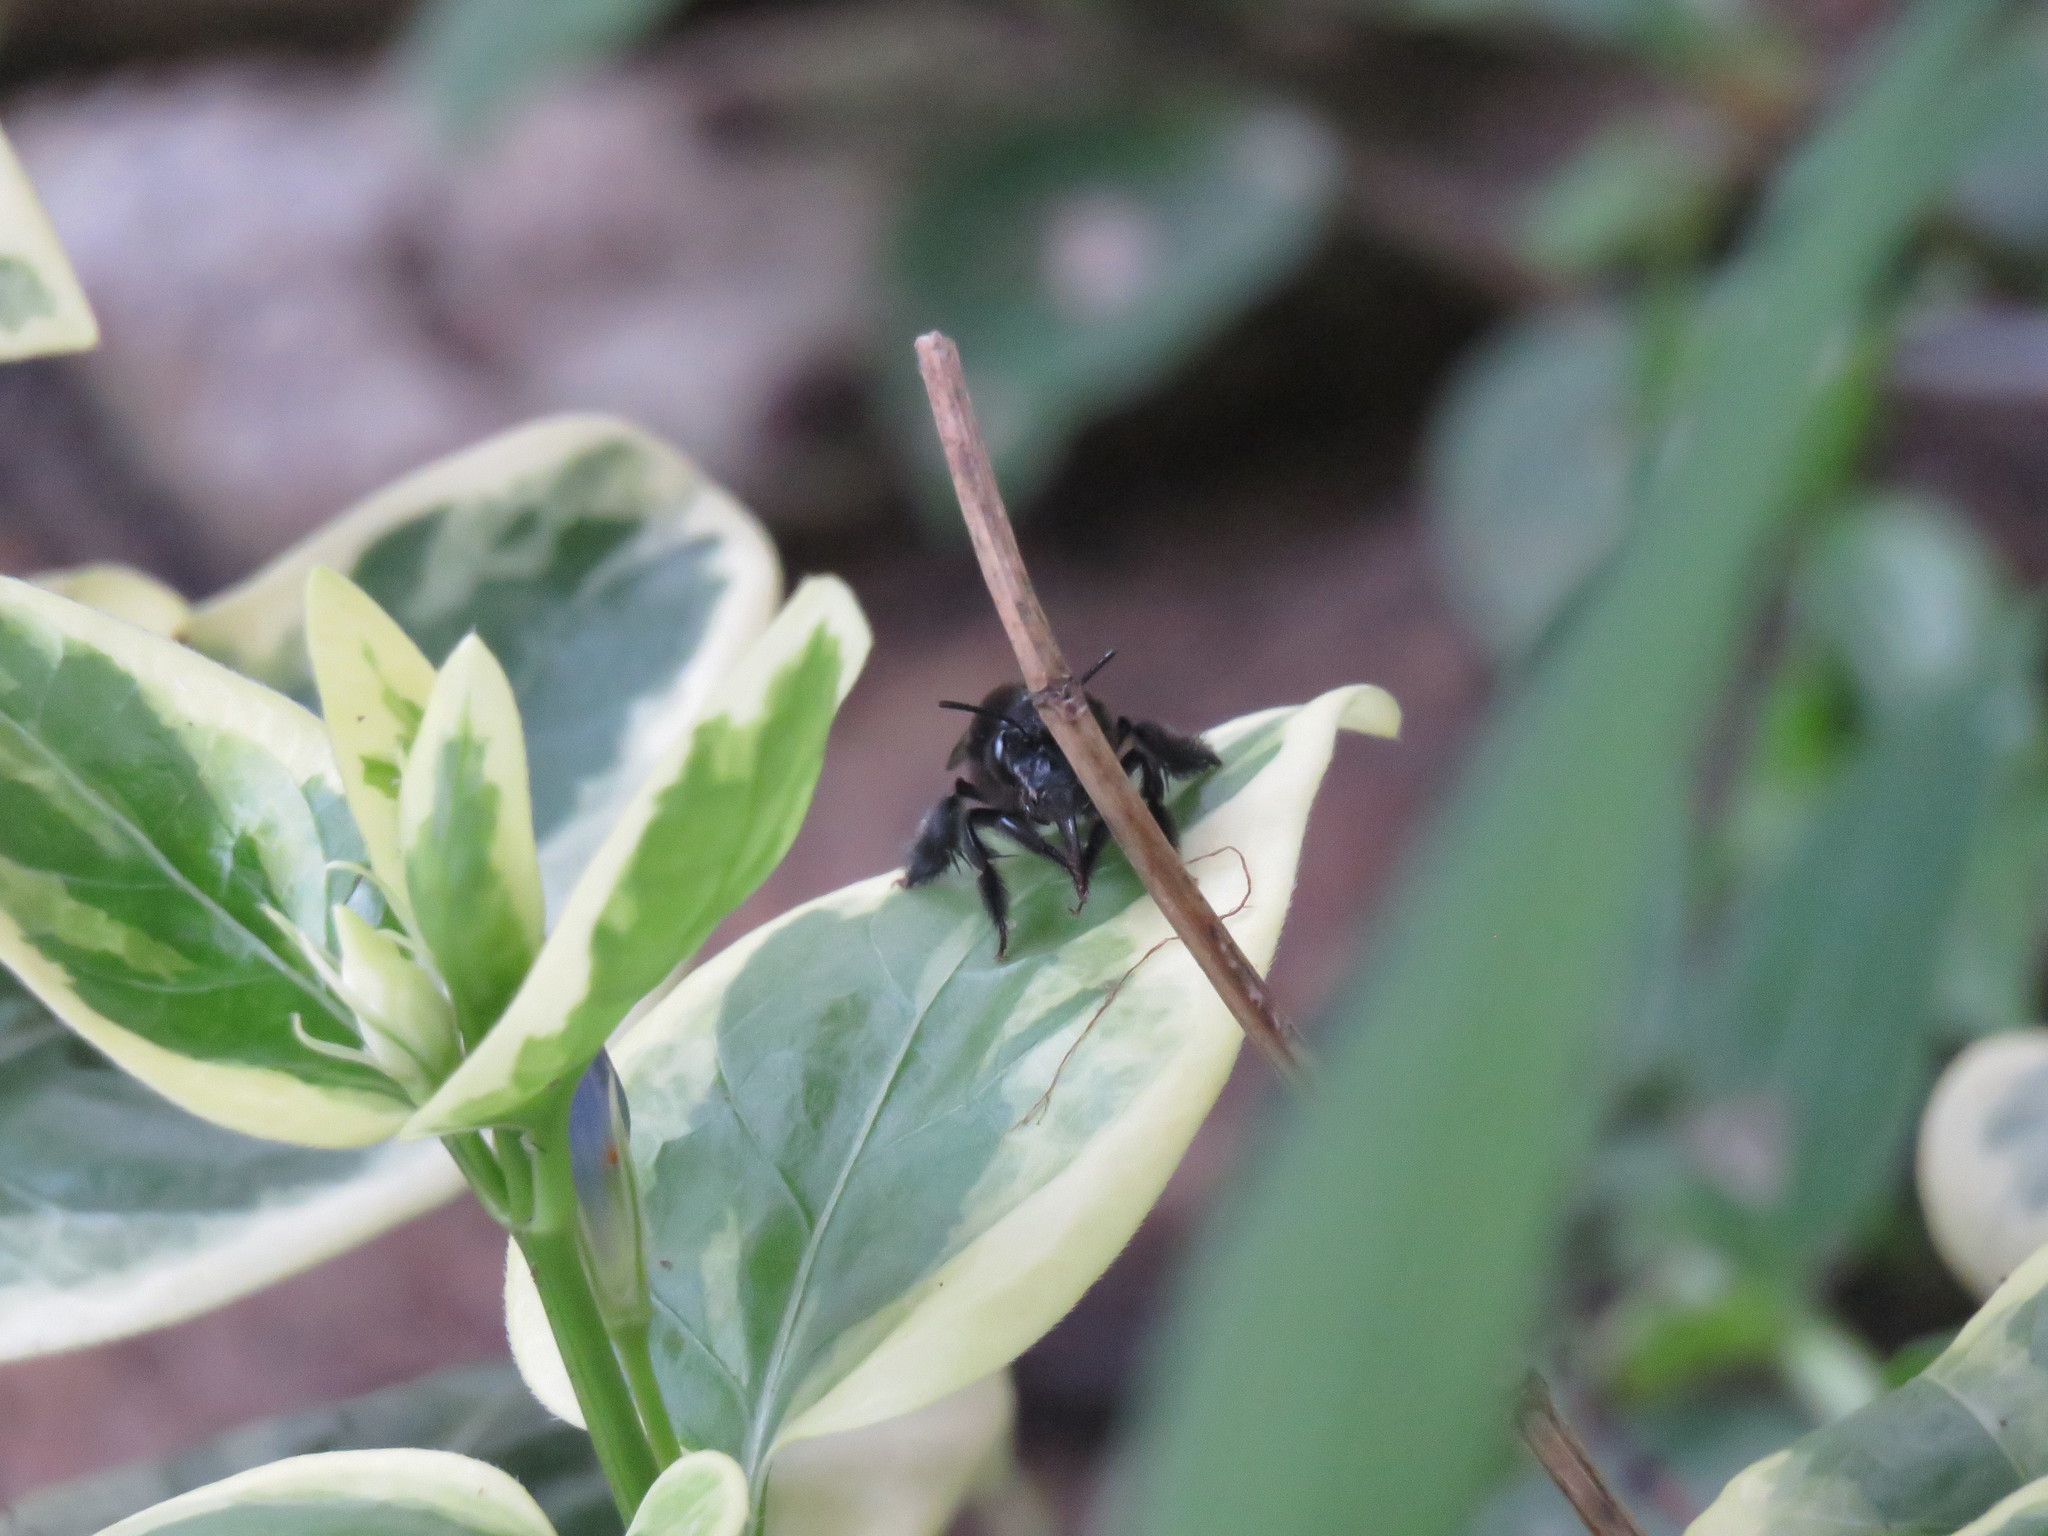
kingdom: Animalia
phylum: Arthropoda
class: Insecta
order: Hymenoptera
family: Apidae
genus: Thygater
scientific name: Thygater aethiops
